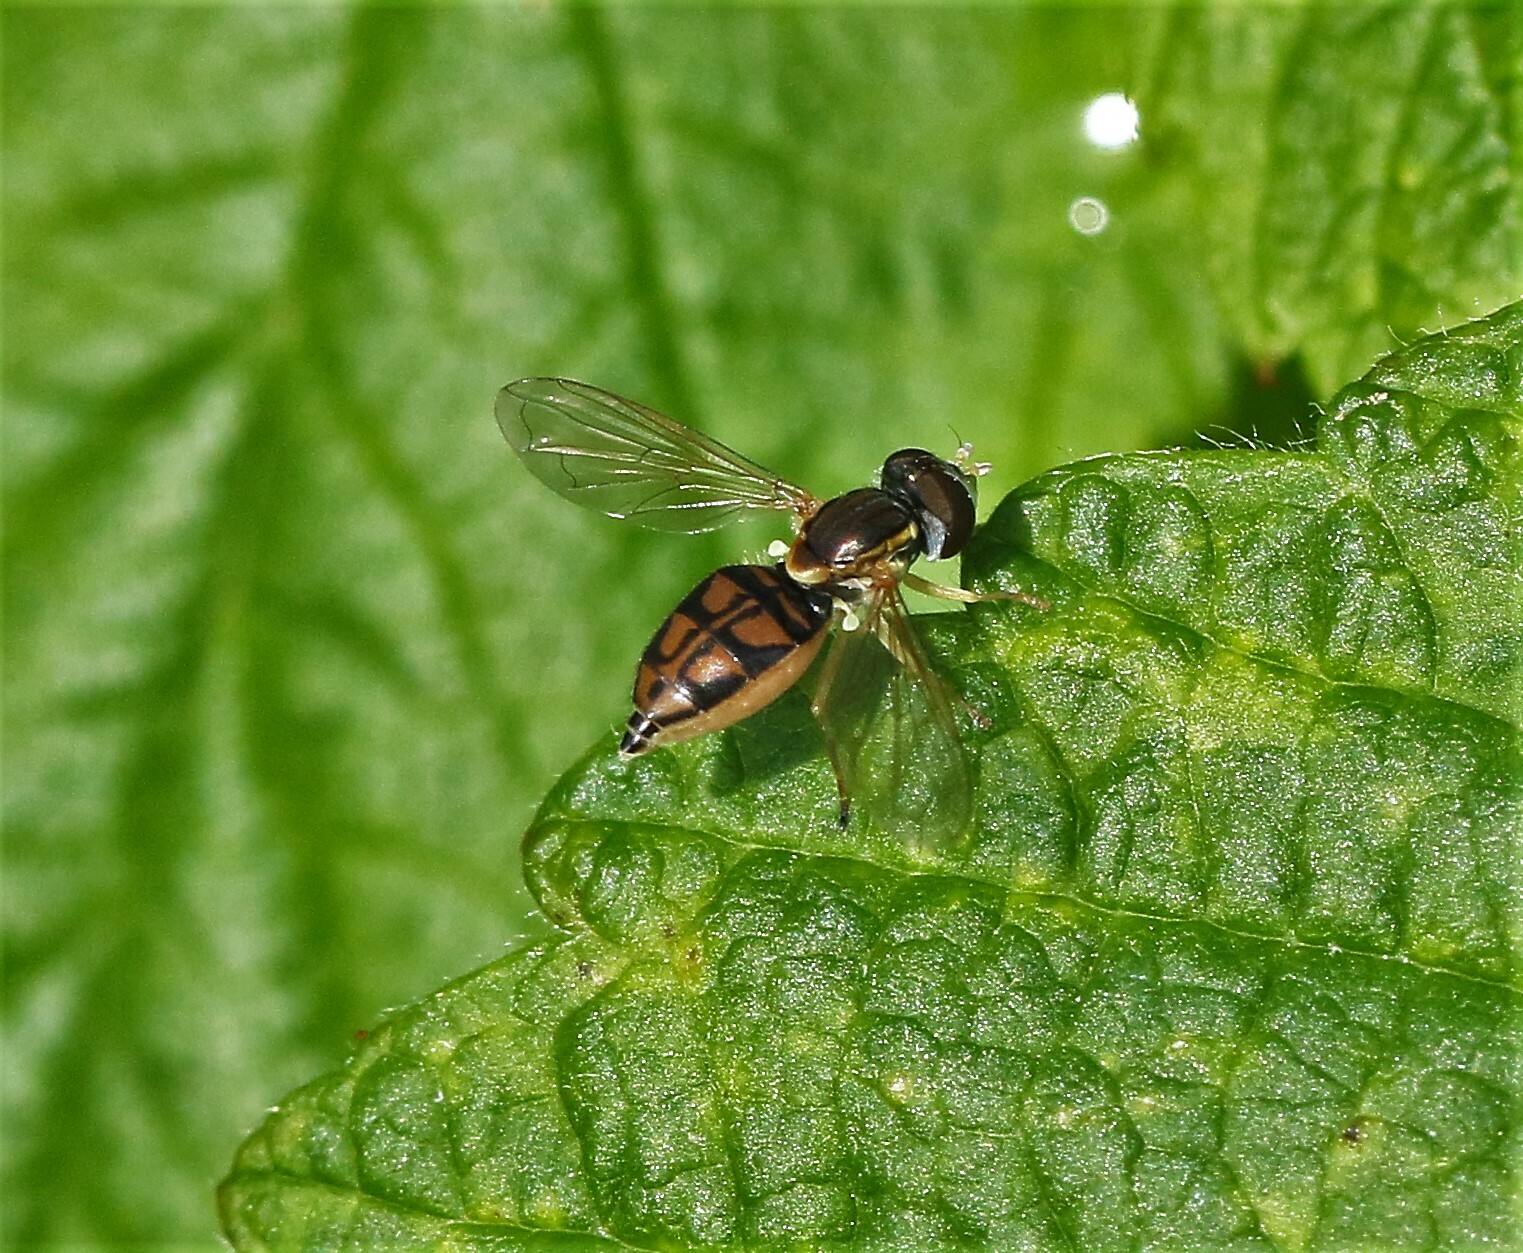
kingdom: Animalia
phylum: Arthropoda
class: Insecta
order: Diptera
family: Syrphidae
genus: Toxomerus
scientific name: Toxomerus marginatus
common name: Syrphid fly
